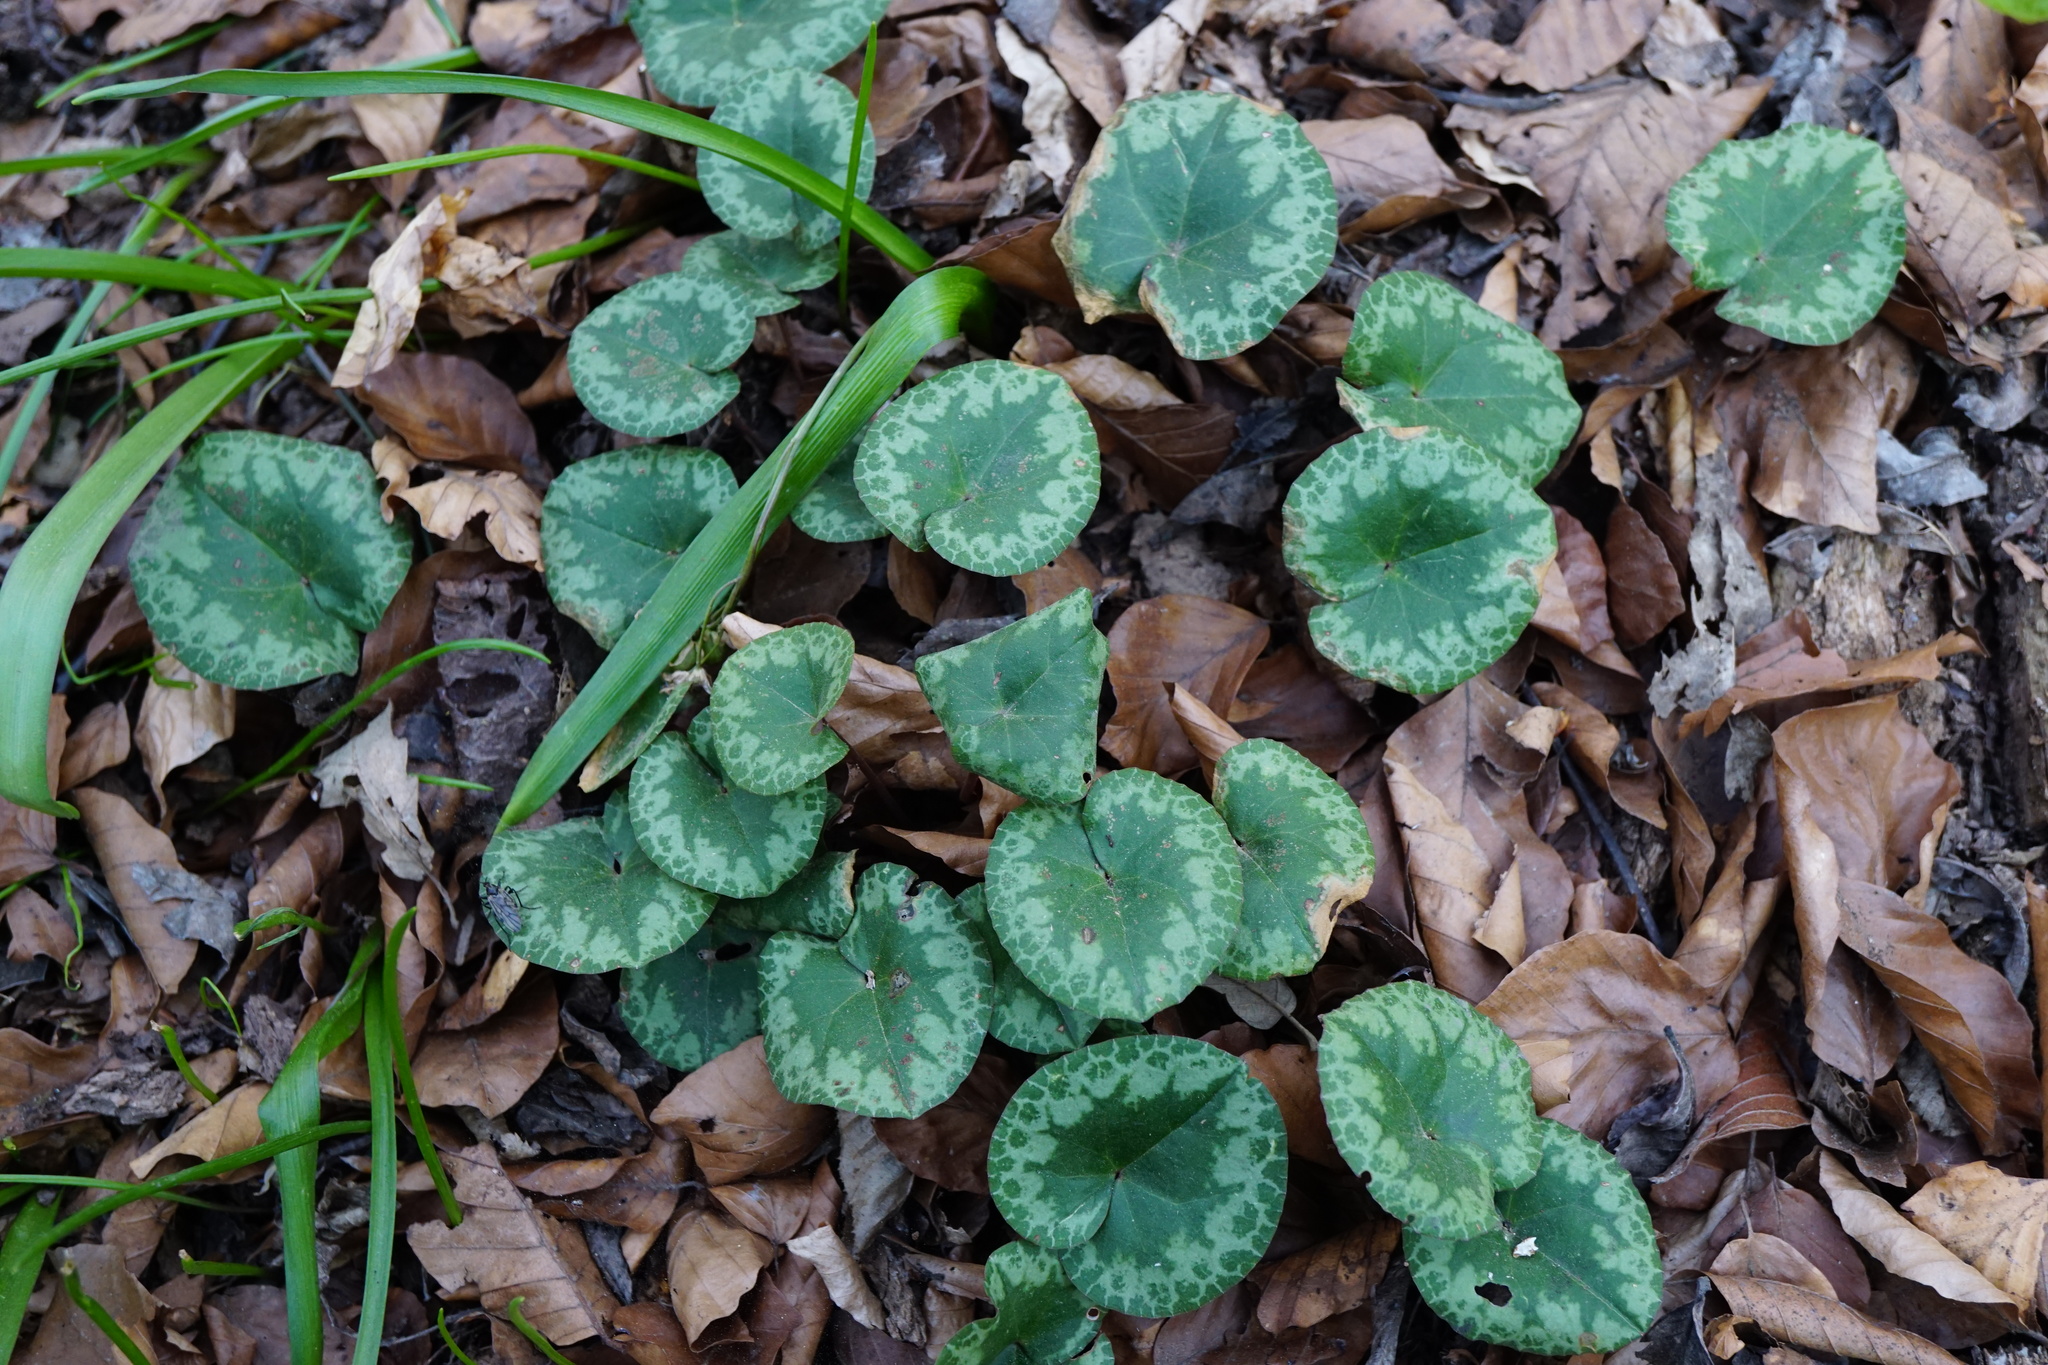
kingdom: Plantae
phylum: Tracheophyta
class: Magnoliopsida
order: Ericales
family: Primulaceae
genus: Cyclamen
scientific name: Cyclamen purpurascens
